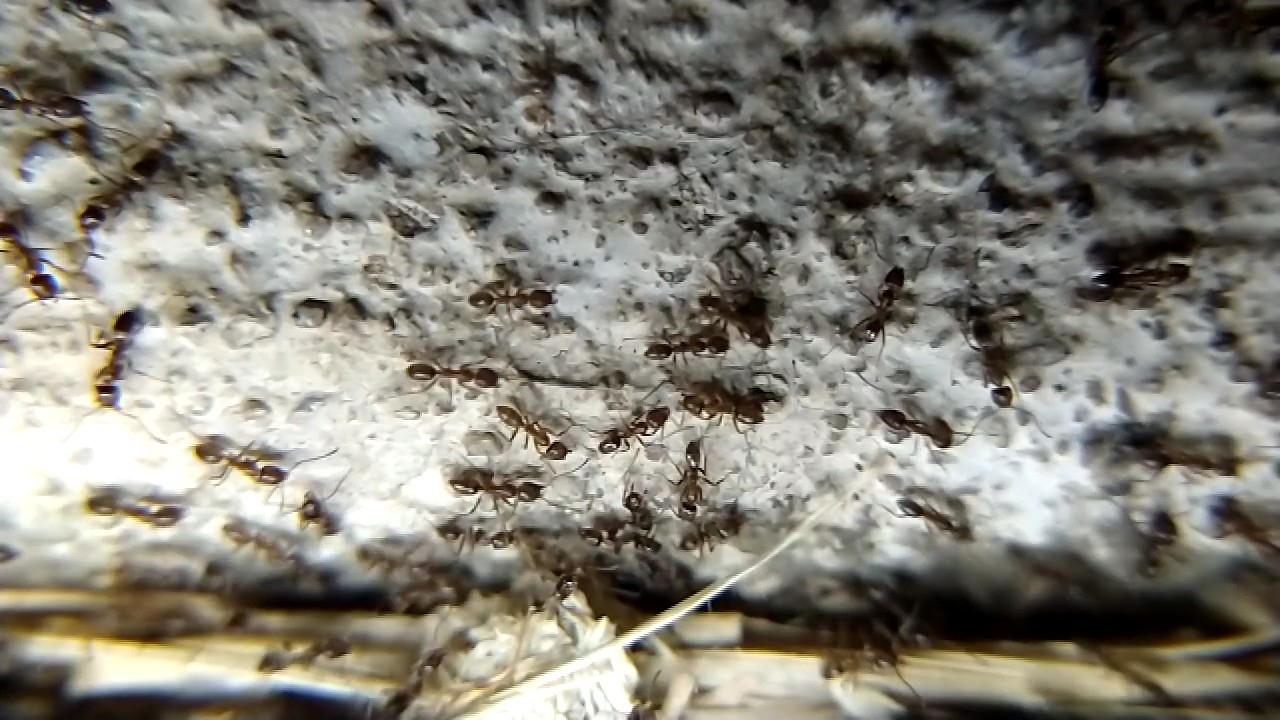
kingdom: Animalia
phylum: Arthropoda
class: Insecta
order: Hymenoptera
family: Formicidae
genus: Linepithema
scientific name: Linepithema humile
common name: Argentine ant
